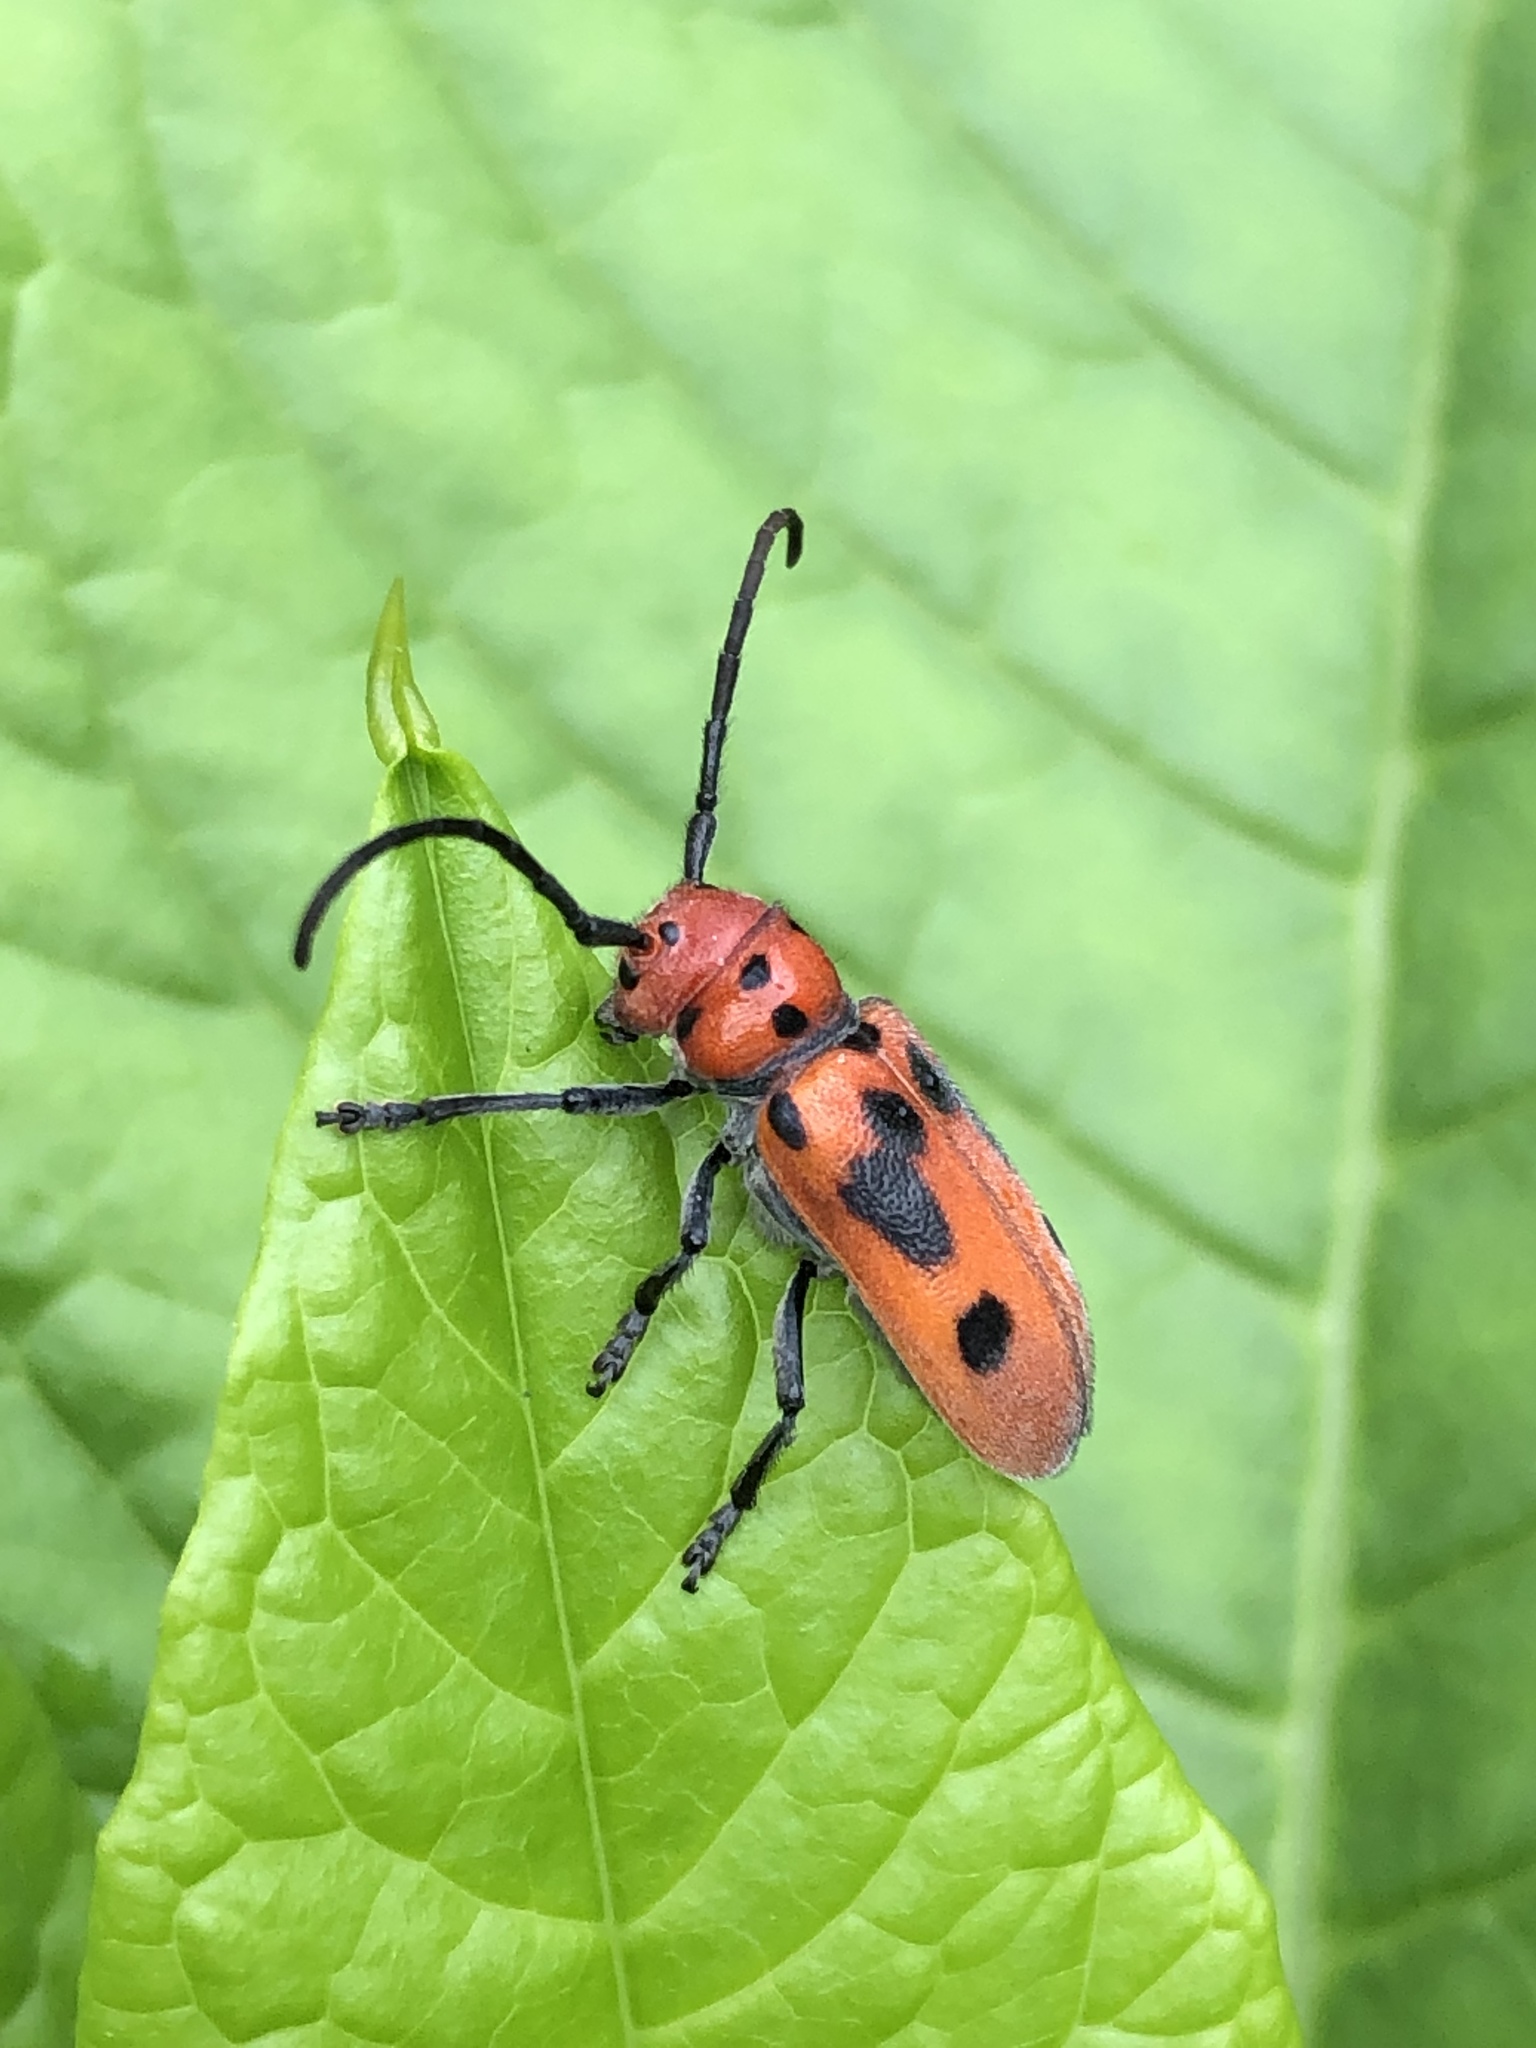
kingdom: Animalia
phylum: Arthropoda
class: Insecta
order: Coleoptera
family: Cerambycidae
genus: Tetraopes
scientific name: Tetraopes tetrophthalmus
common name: Red milkweed beetle
